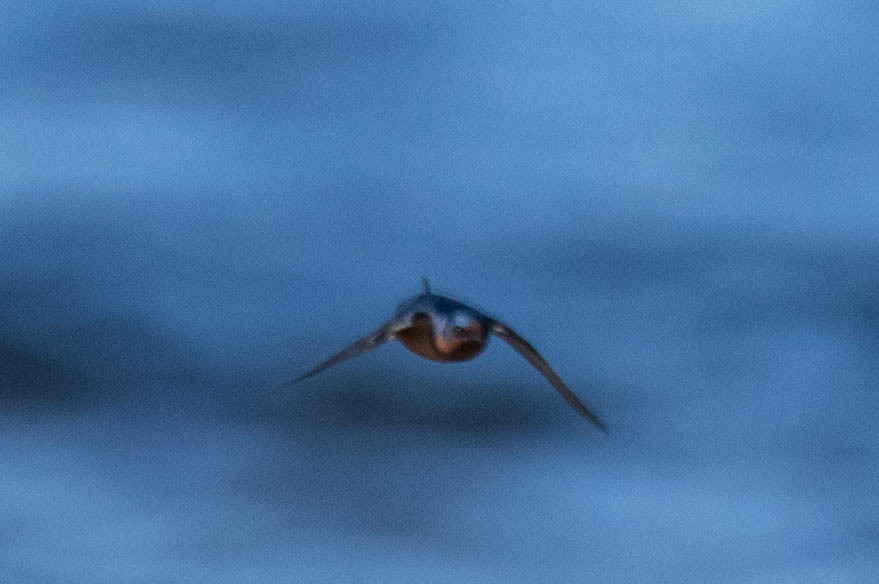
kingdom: Animalia
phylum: Chordata
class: Aves
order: Passeriformes
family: Hirundinidae
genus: Hirundo
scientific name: Hirundo rustica
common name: Barn swallow
